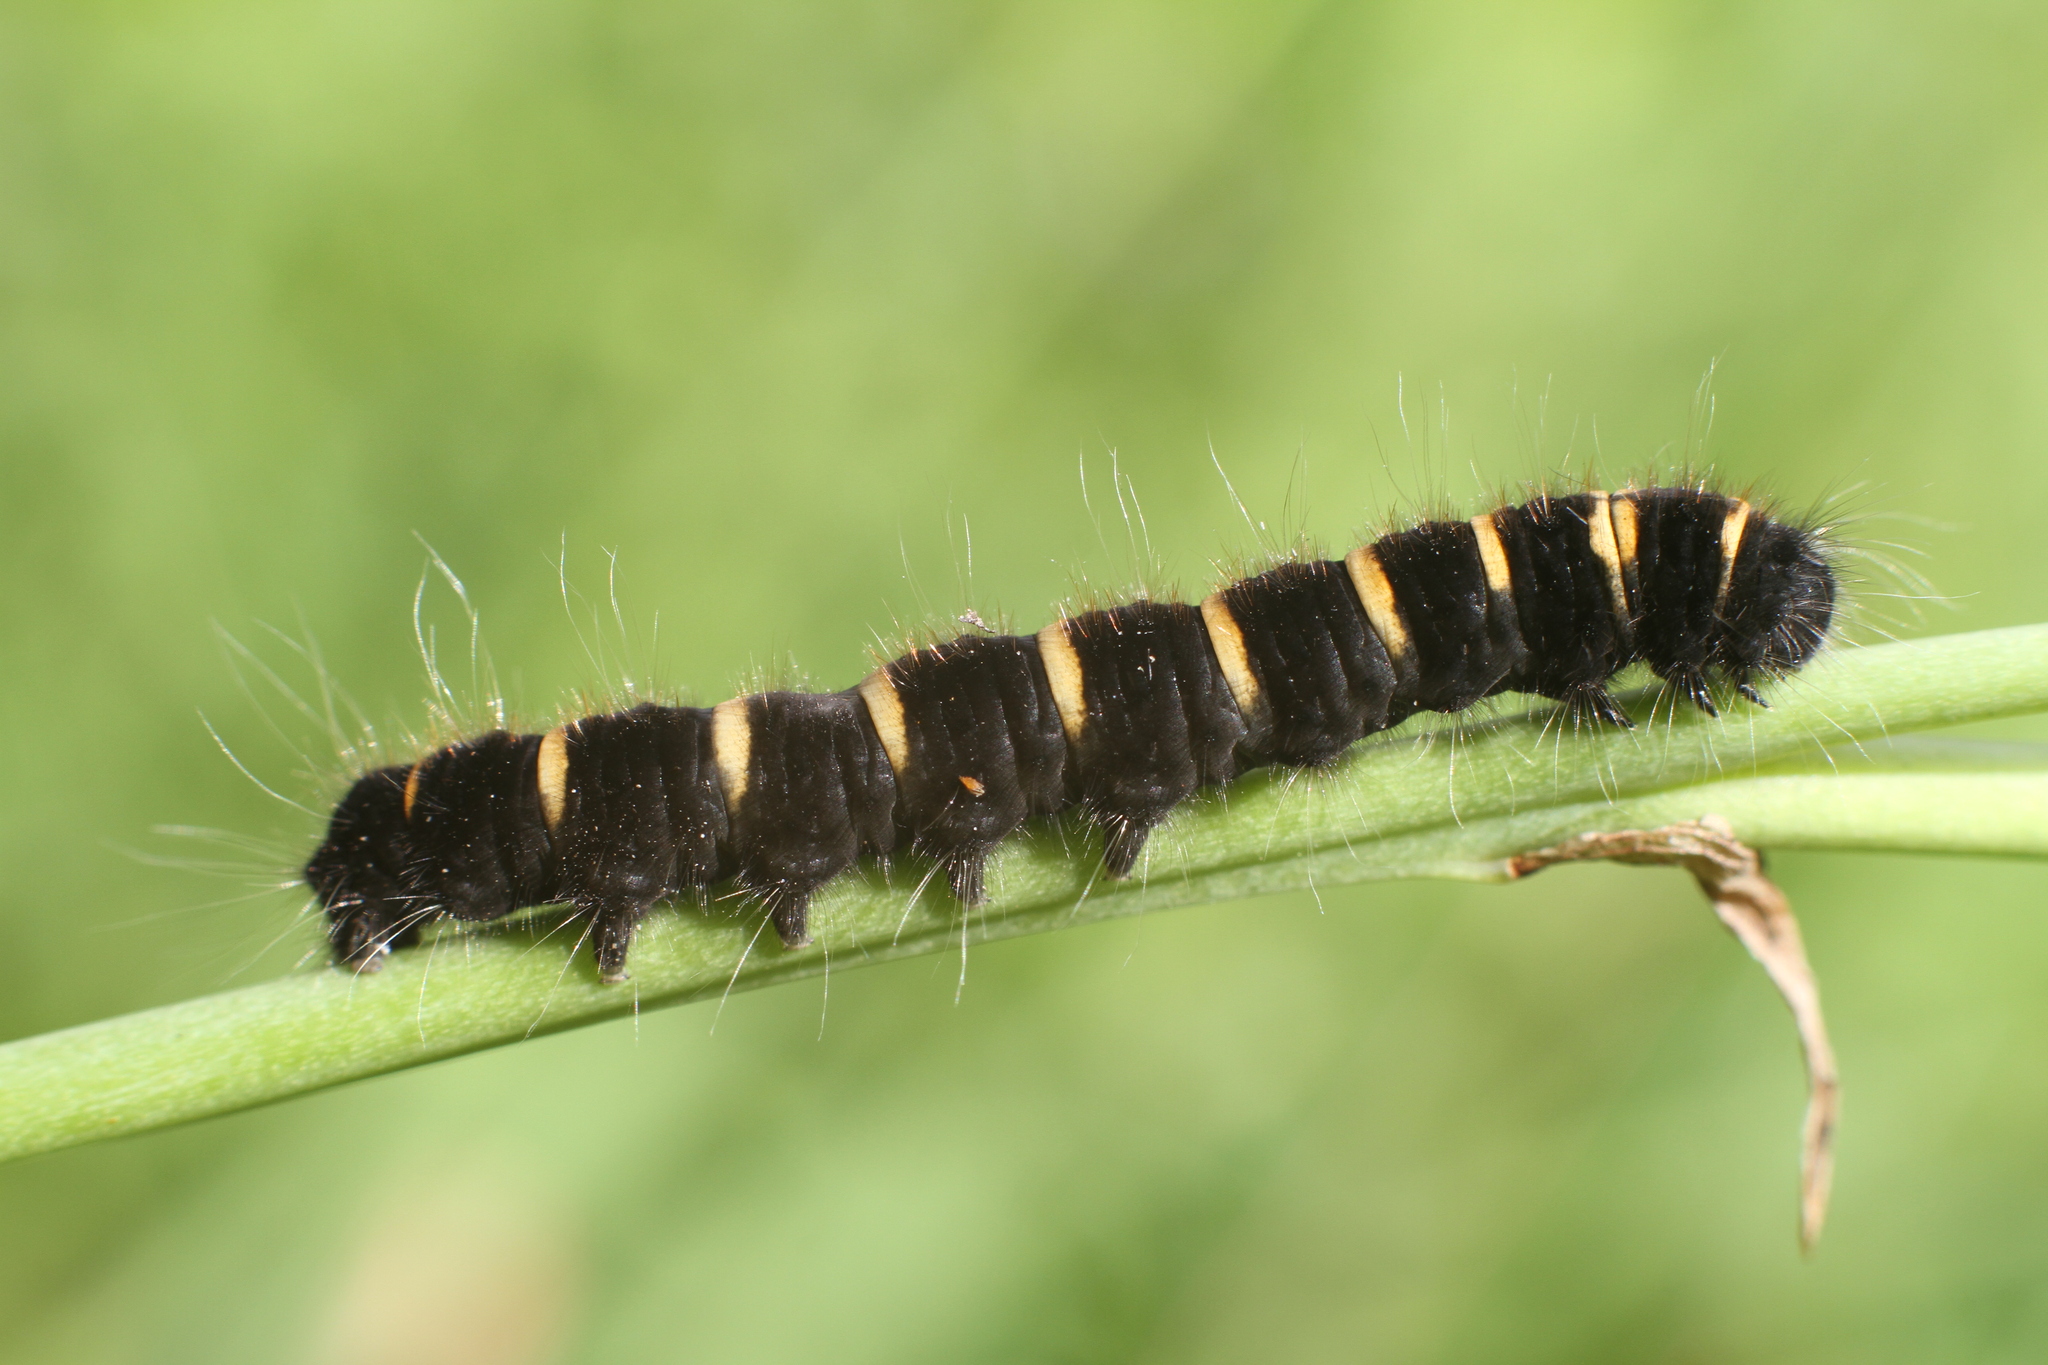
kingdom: Animalia
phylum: Arthropoda
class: Insecta
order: Lepidoptera
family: Lasiocampidae
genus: Macrothylacia
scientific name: Macrothylacia rubi
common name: Fox moth
